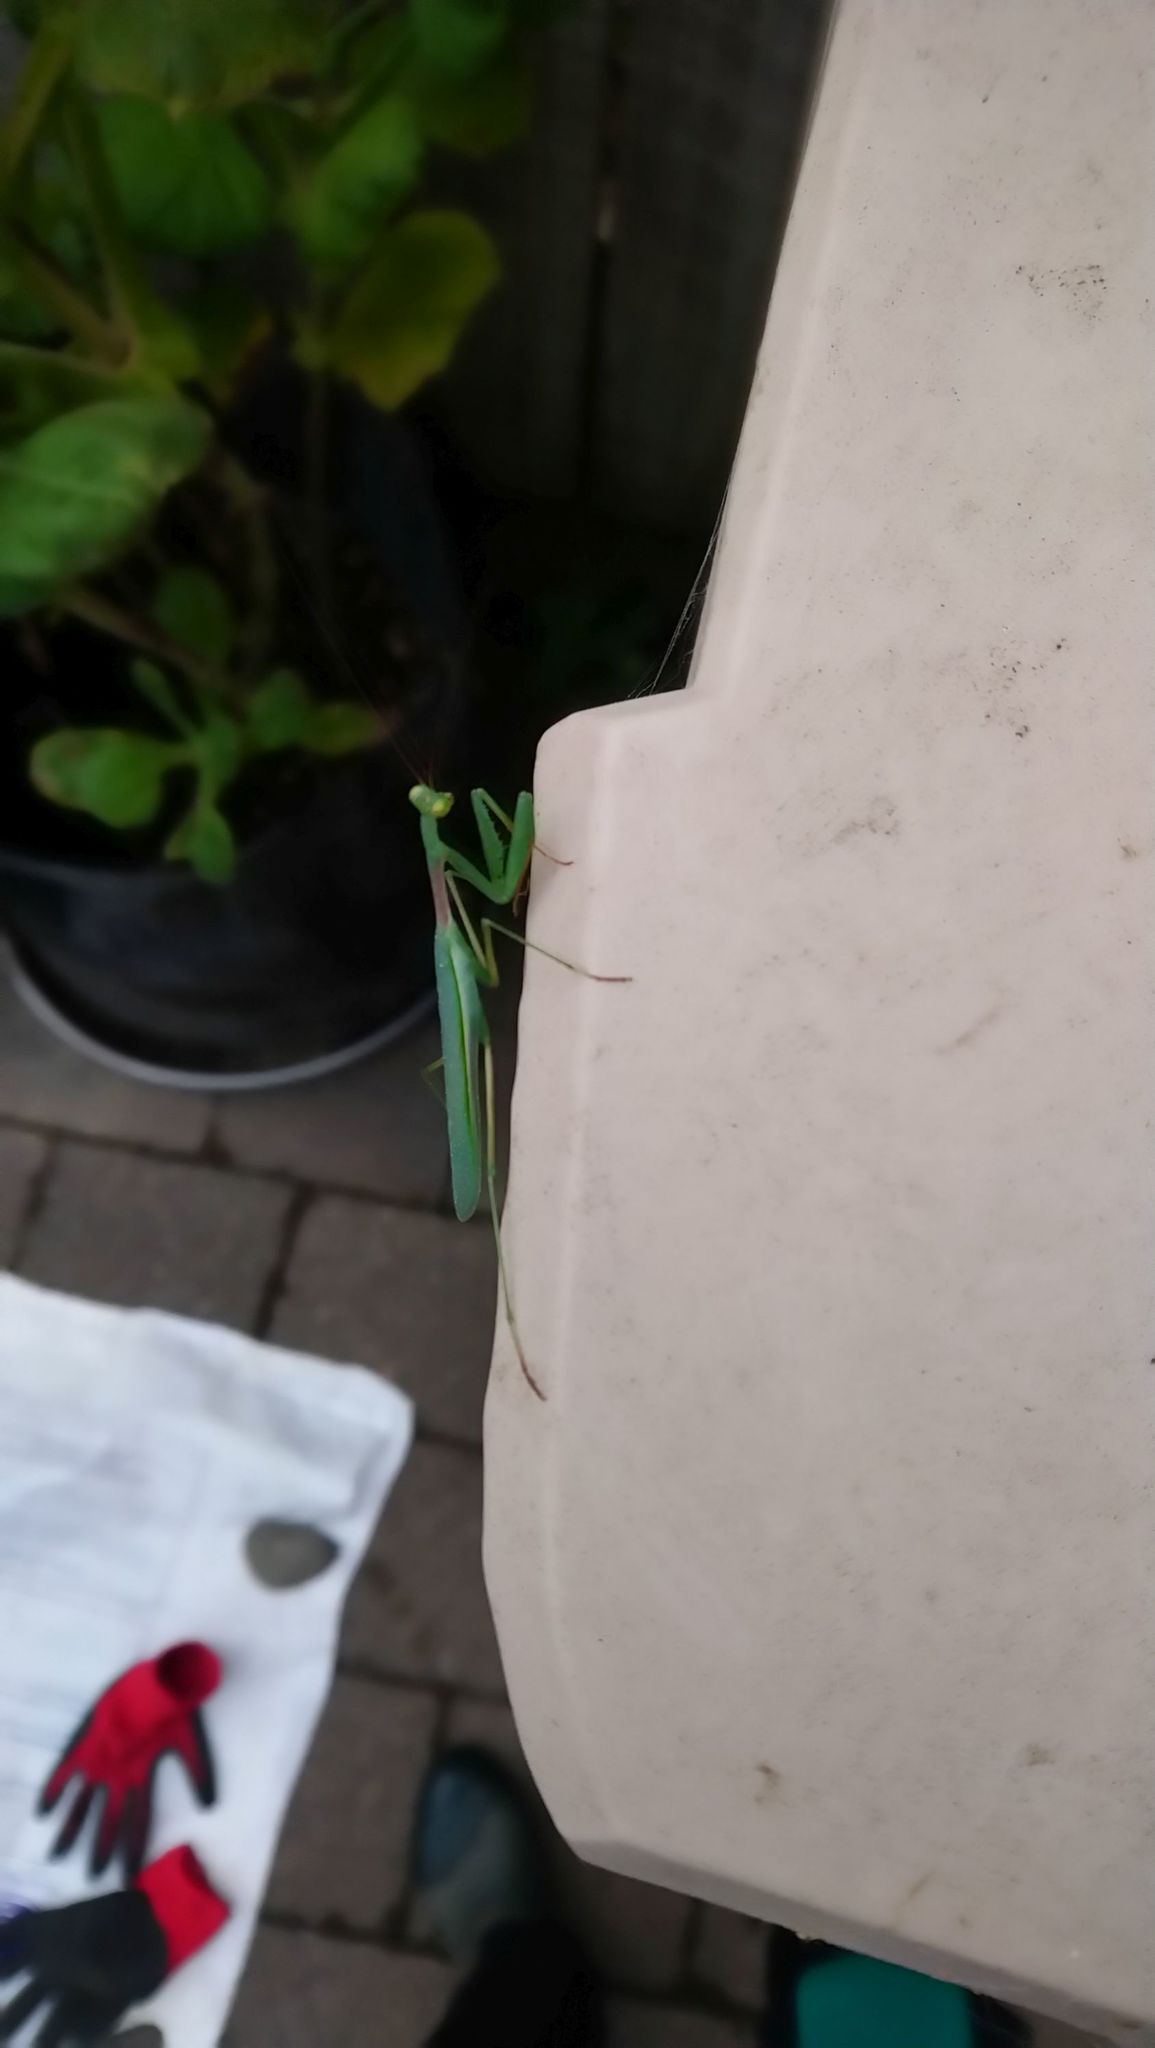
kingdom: Animalia
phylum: Arthropoda
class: Insecta
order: Mantodea
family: Miomantidae
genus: Miomantis
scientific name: Miomantis caffra
